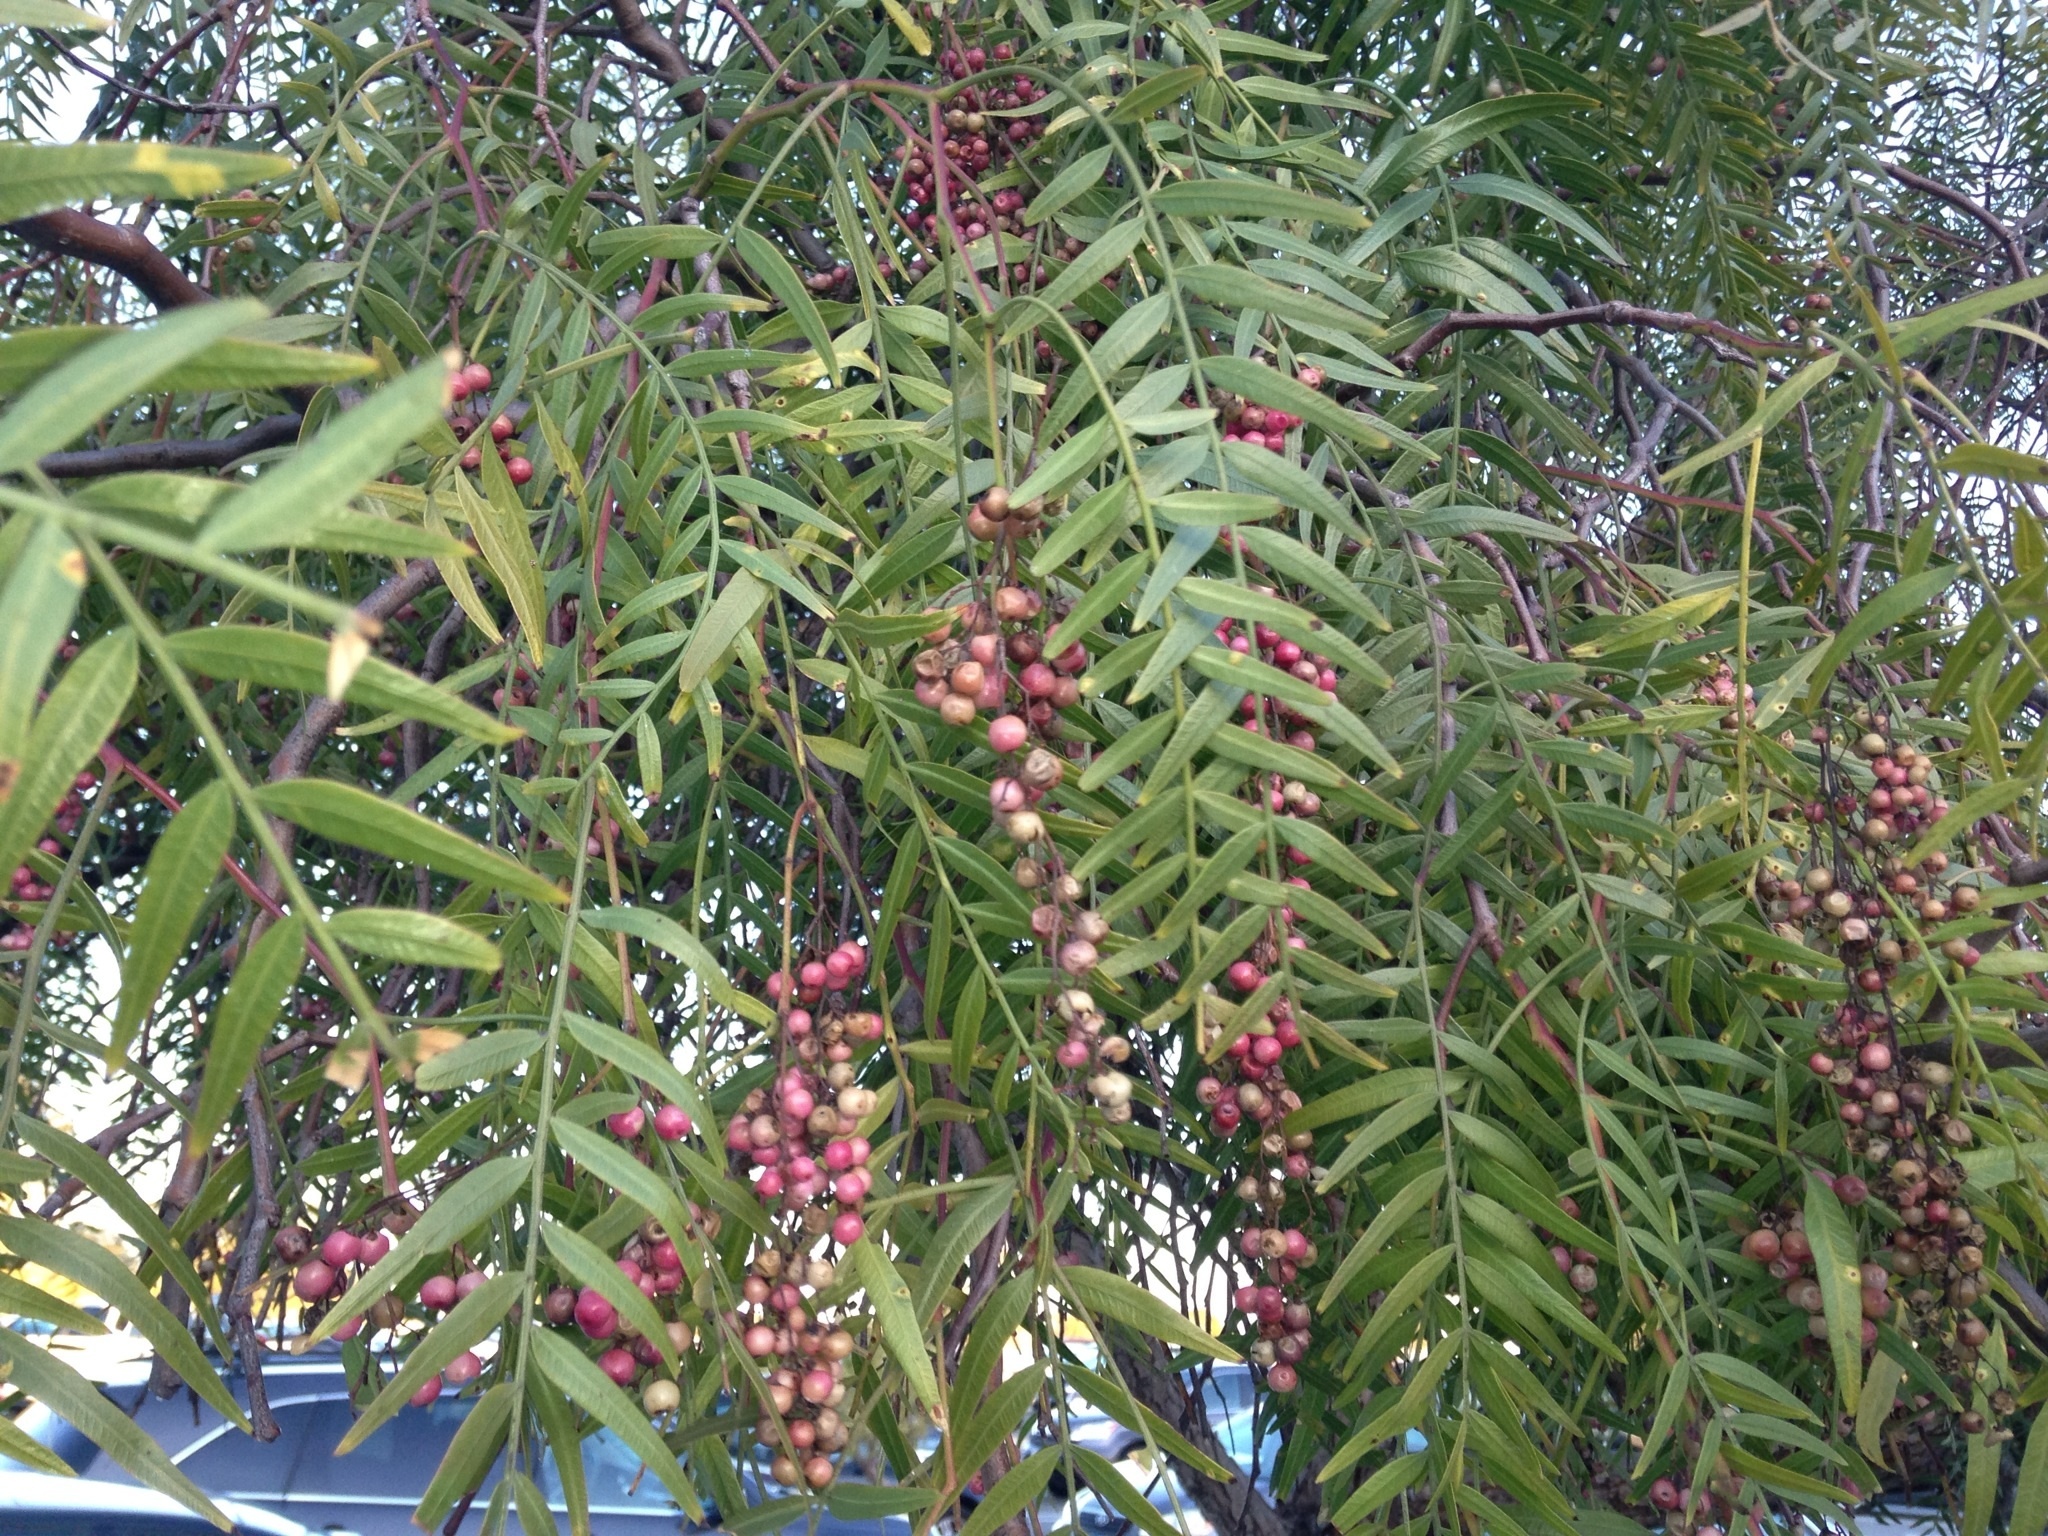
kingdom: Plantae
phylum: Tracheophyta
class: Magnoliopsida
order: Sapindales
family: Anacardiaceae
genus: Schinus
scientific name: Schinus molle
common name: Peruvian peppertree
